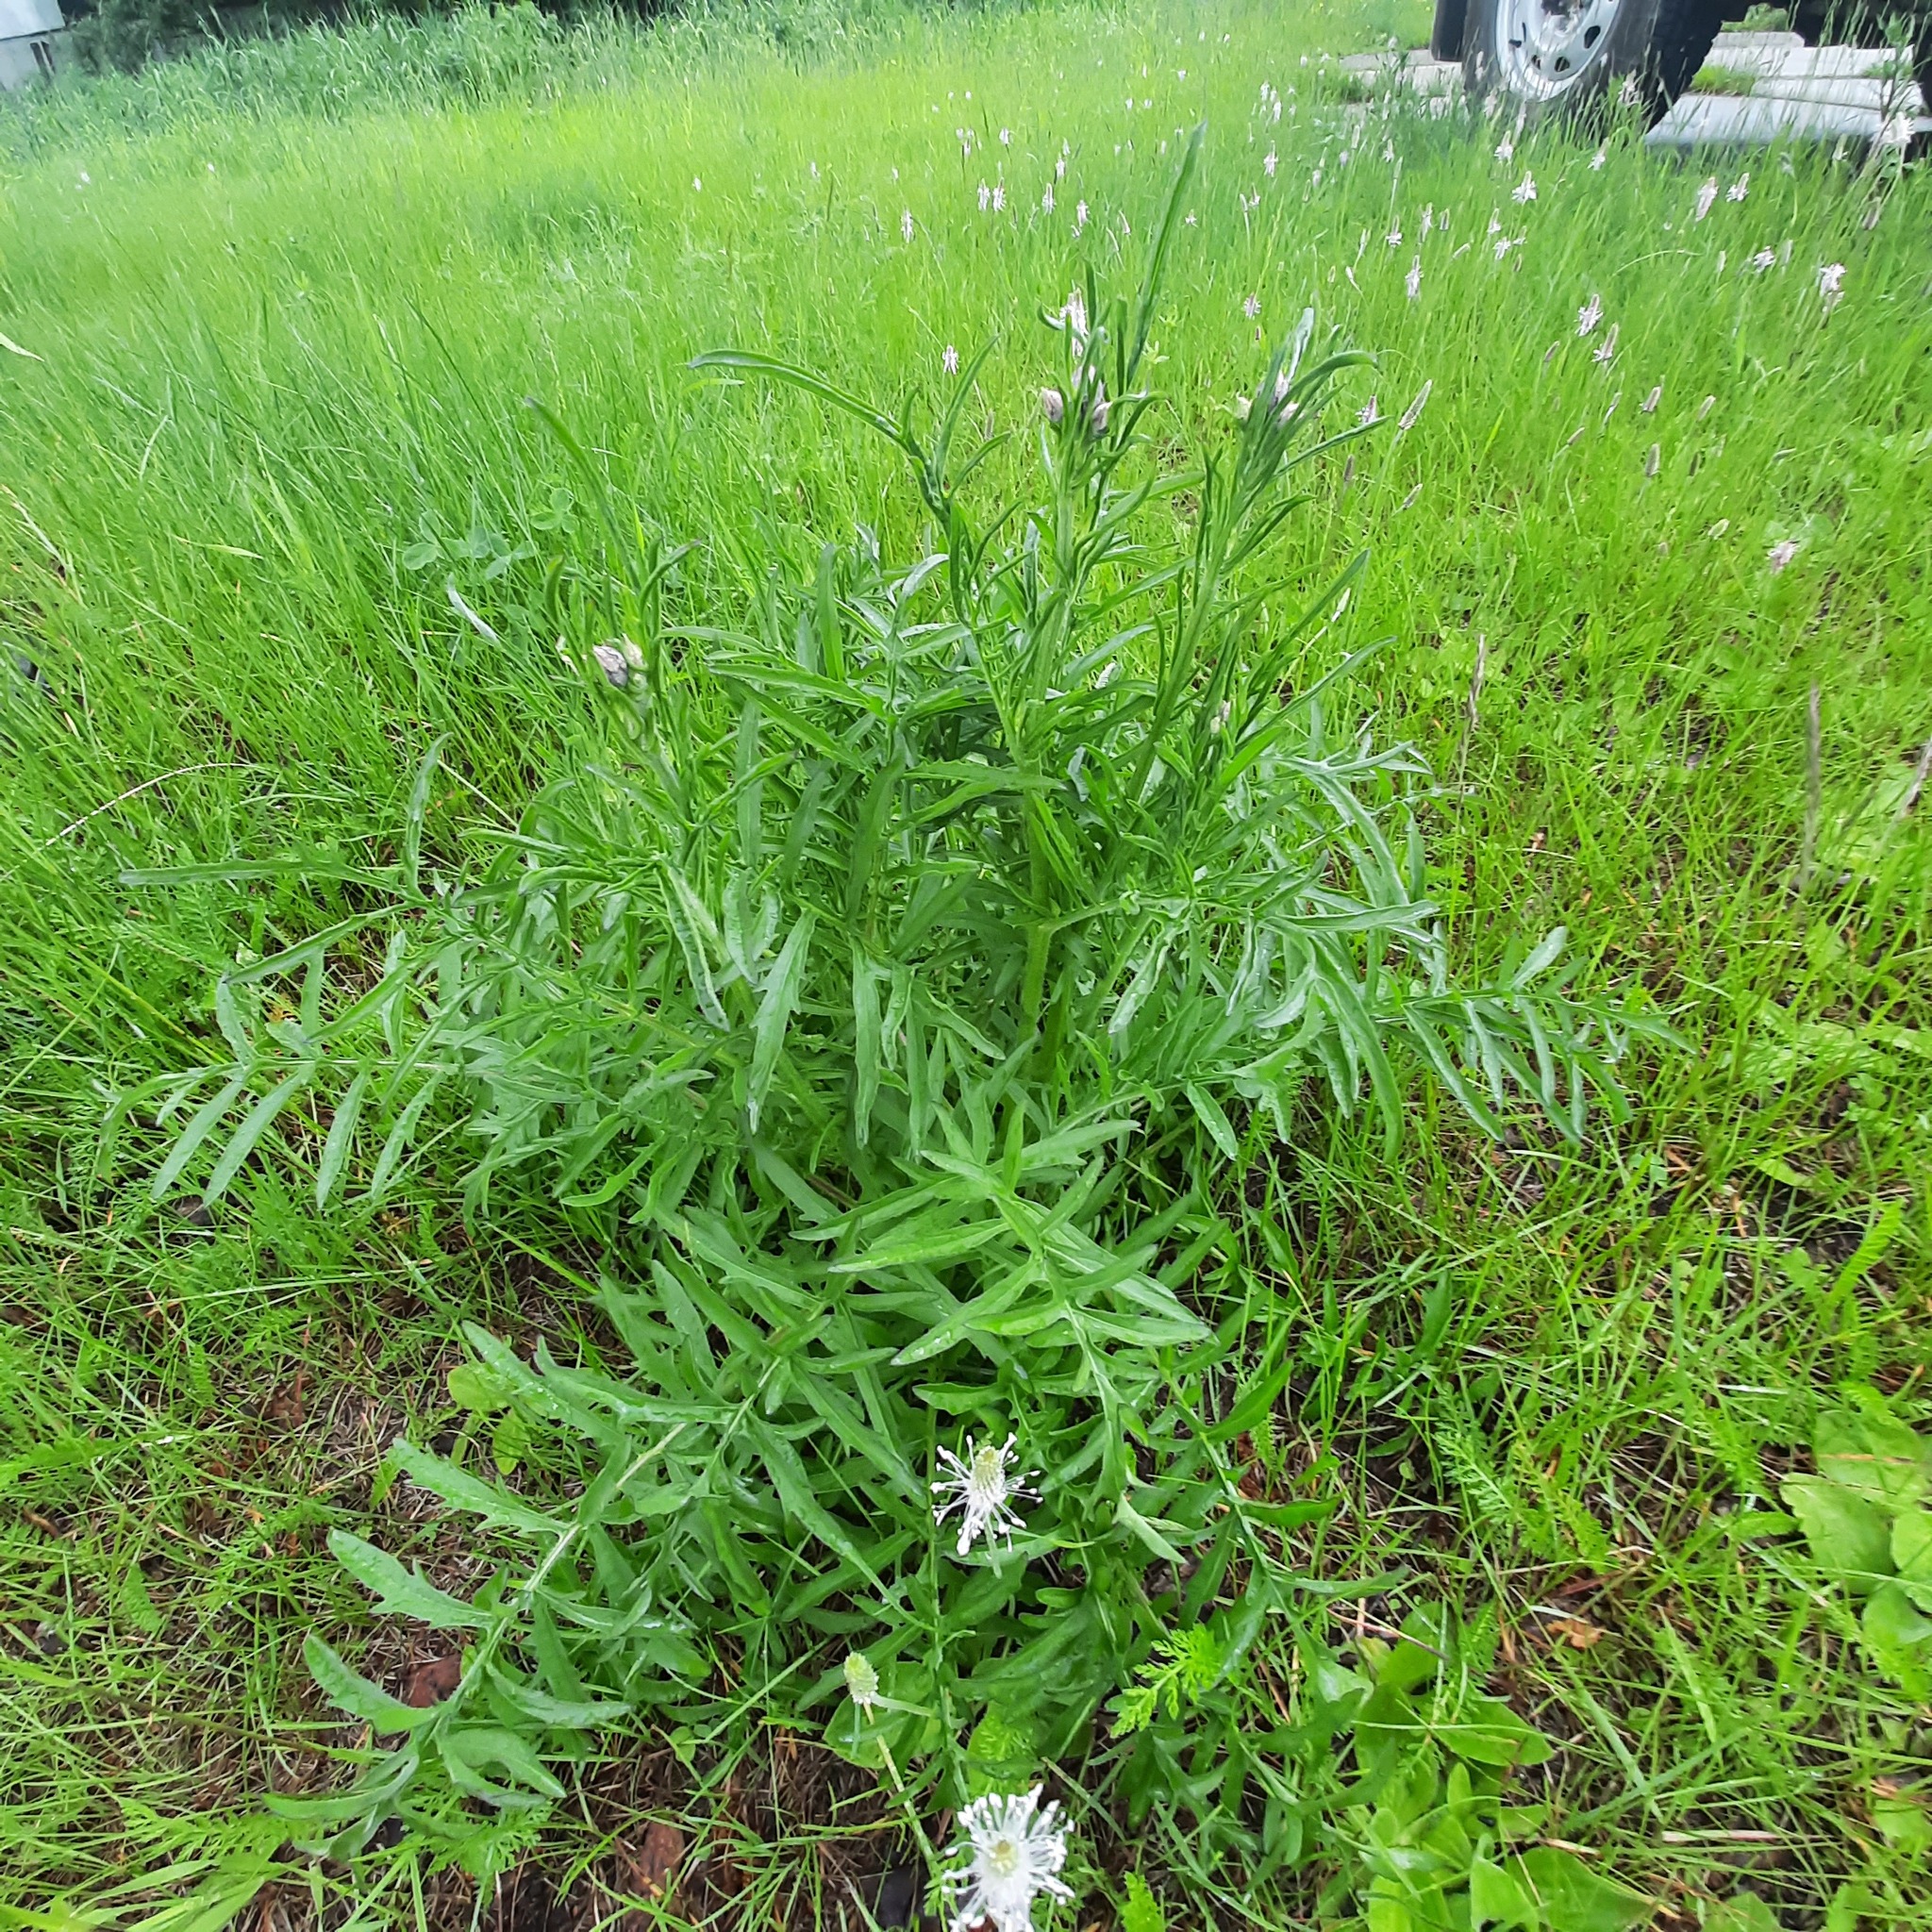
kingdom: Plantae
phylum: Tracheophyta
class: Magnoliopsida
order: Asterales
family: Asteraceae
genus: Centaurea
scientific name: Centaurea scabiosa
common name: Greater knapweed
